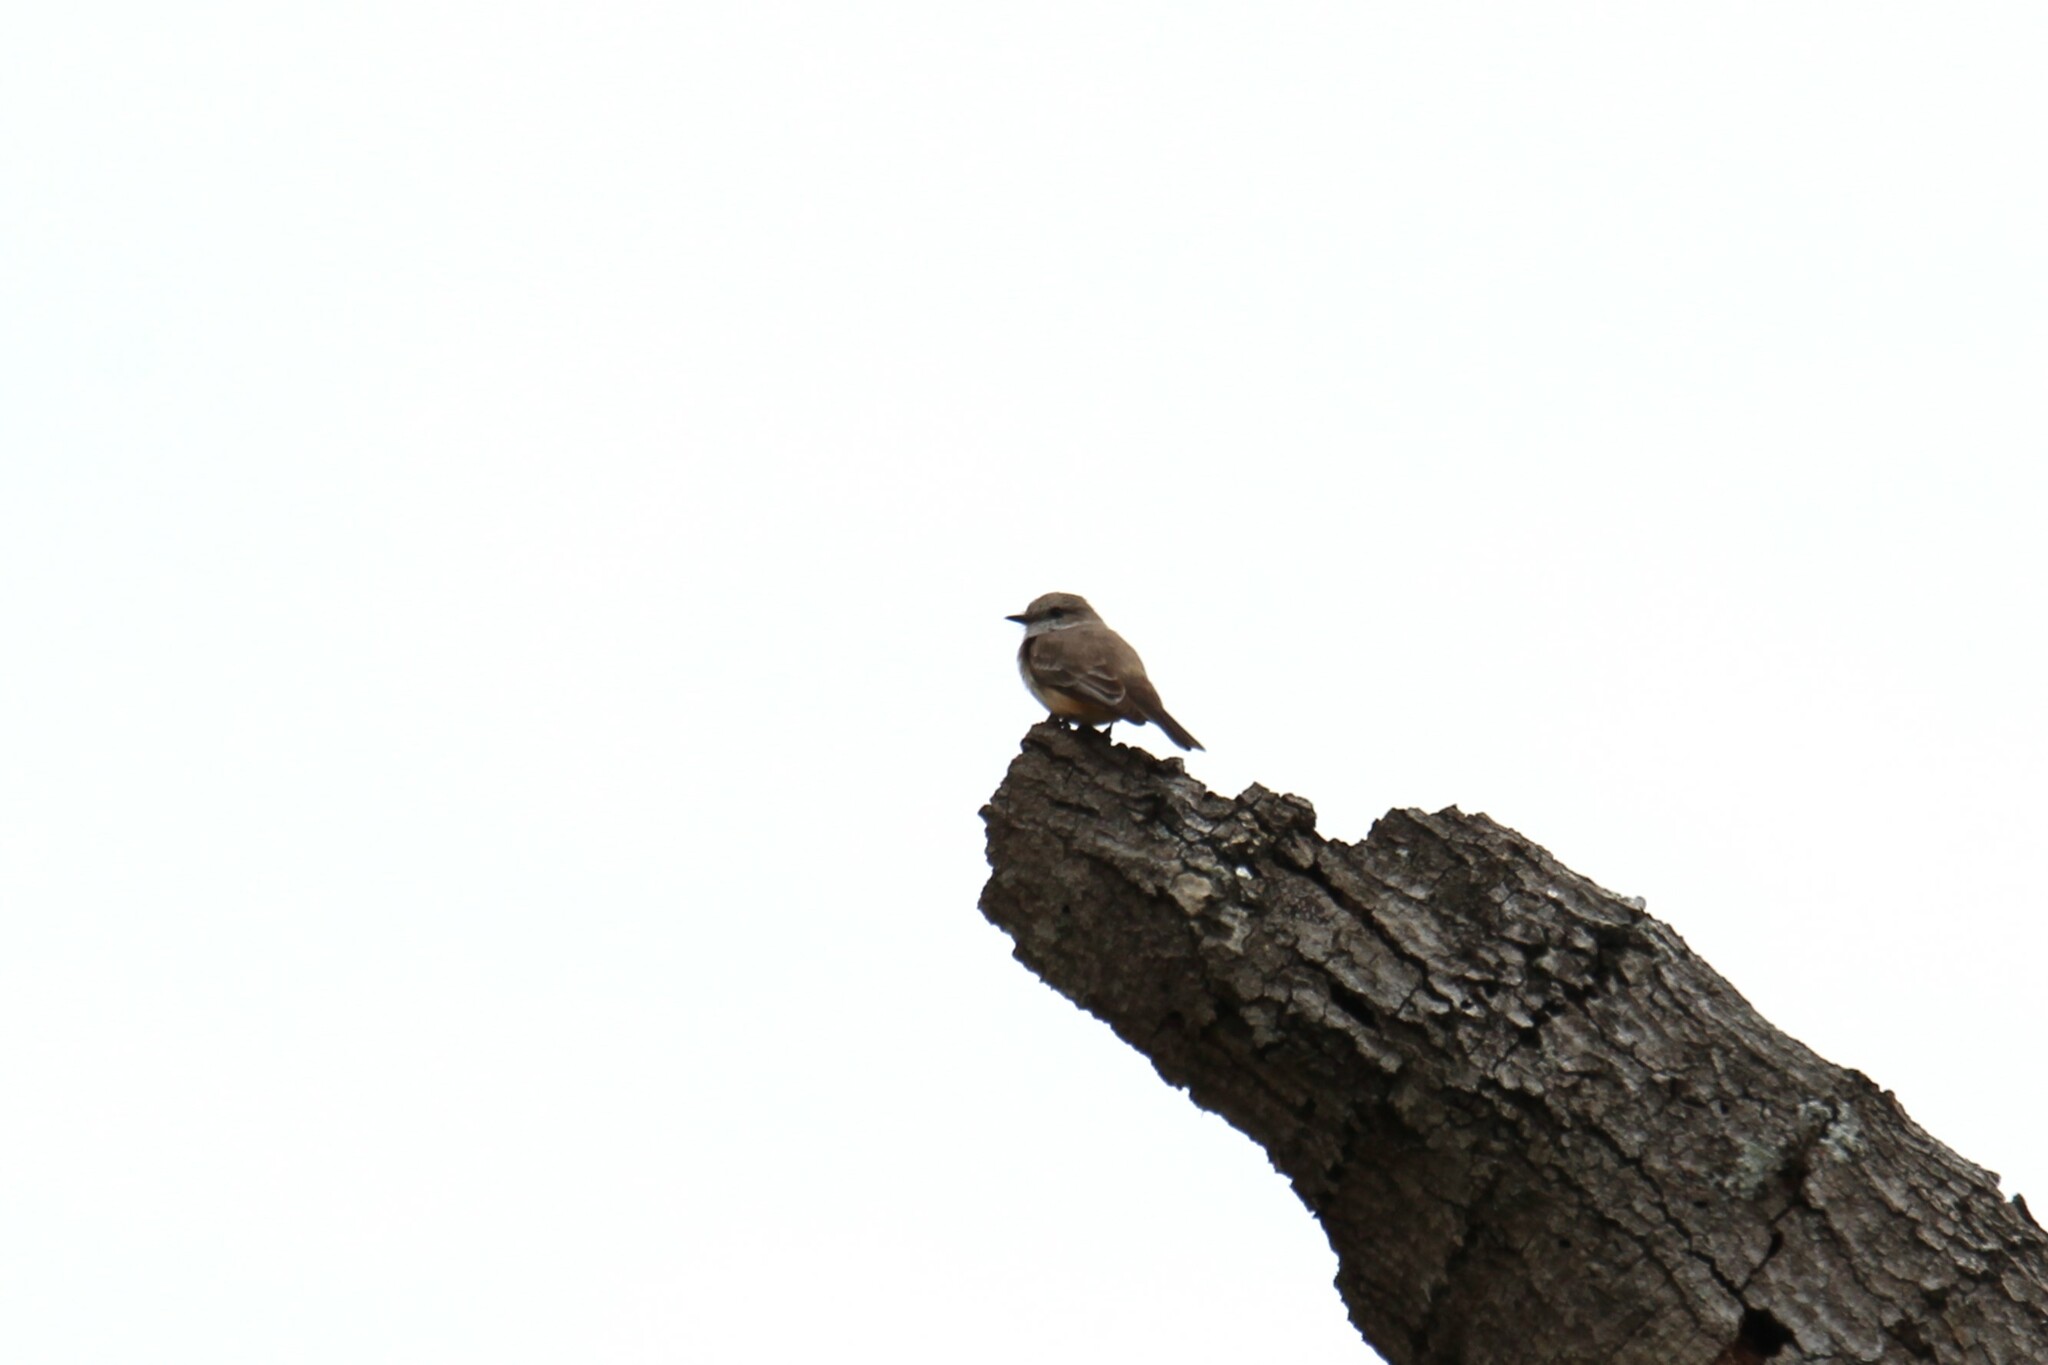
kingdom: Animalia
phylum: Chordata
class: Aves
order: Passeriformes
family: Tyrannidae
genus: Pyrocephalus
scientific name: Pyrocephalus rubinus
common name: Vermilion flycatcher
